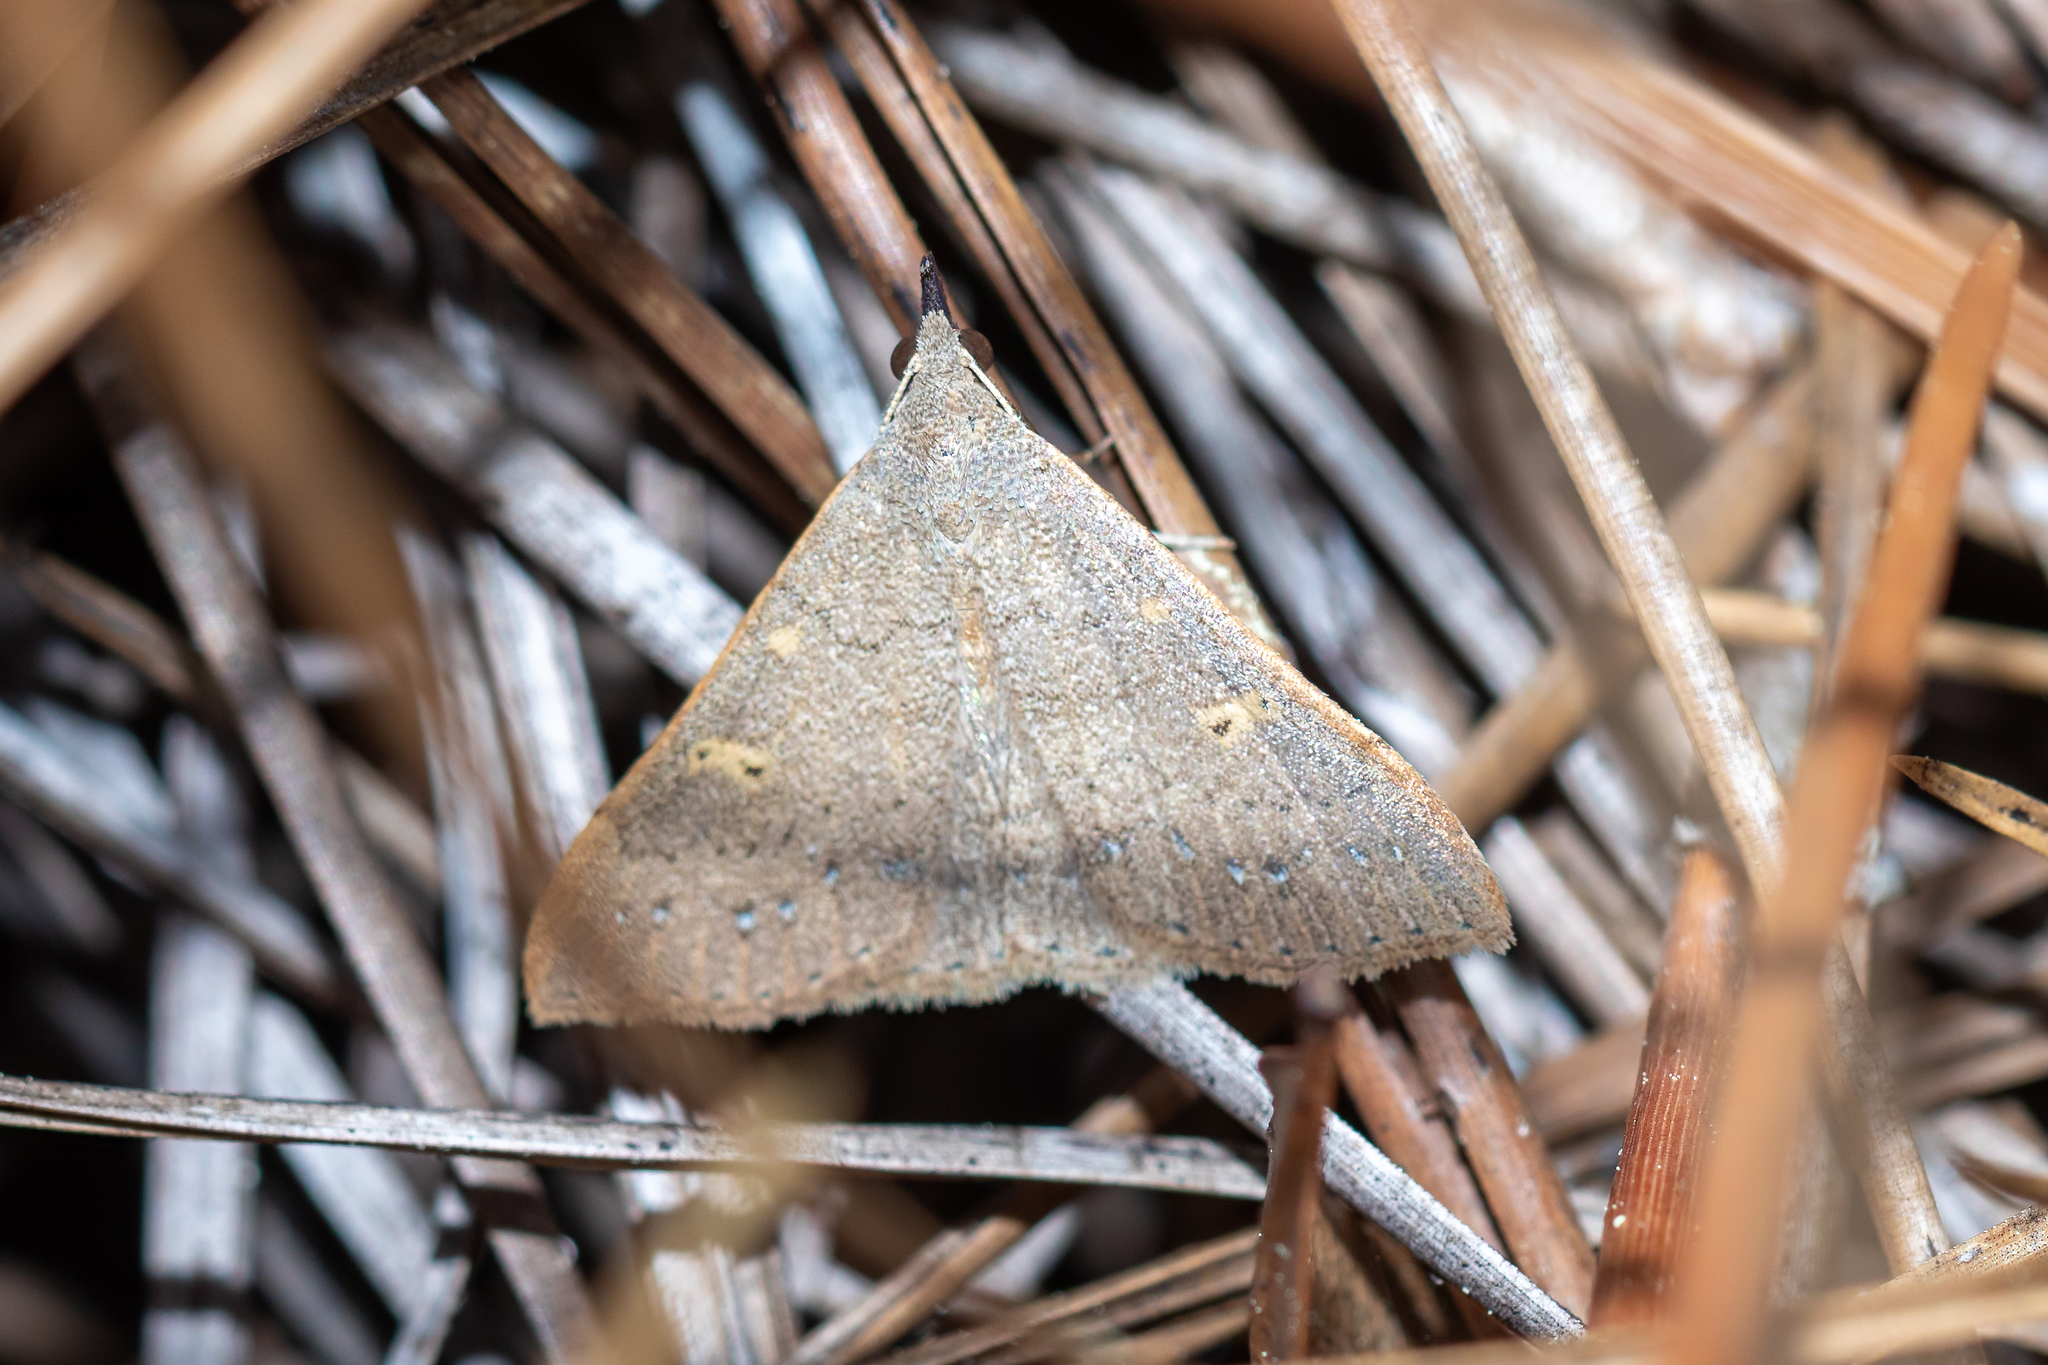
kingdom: Animalia
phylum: Arthropoda
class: Insecta
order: Lepidoptera
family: Erebidae
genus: Renia
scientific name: Renia fraternalis
